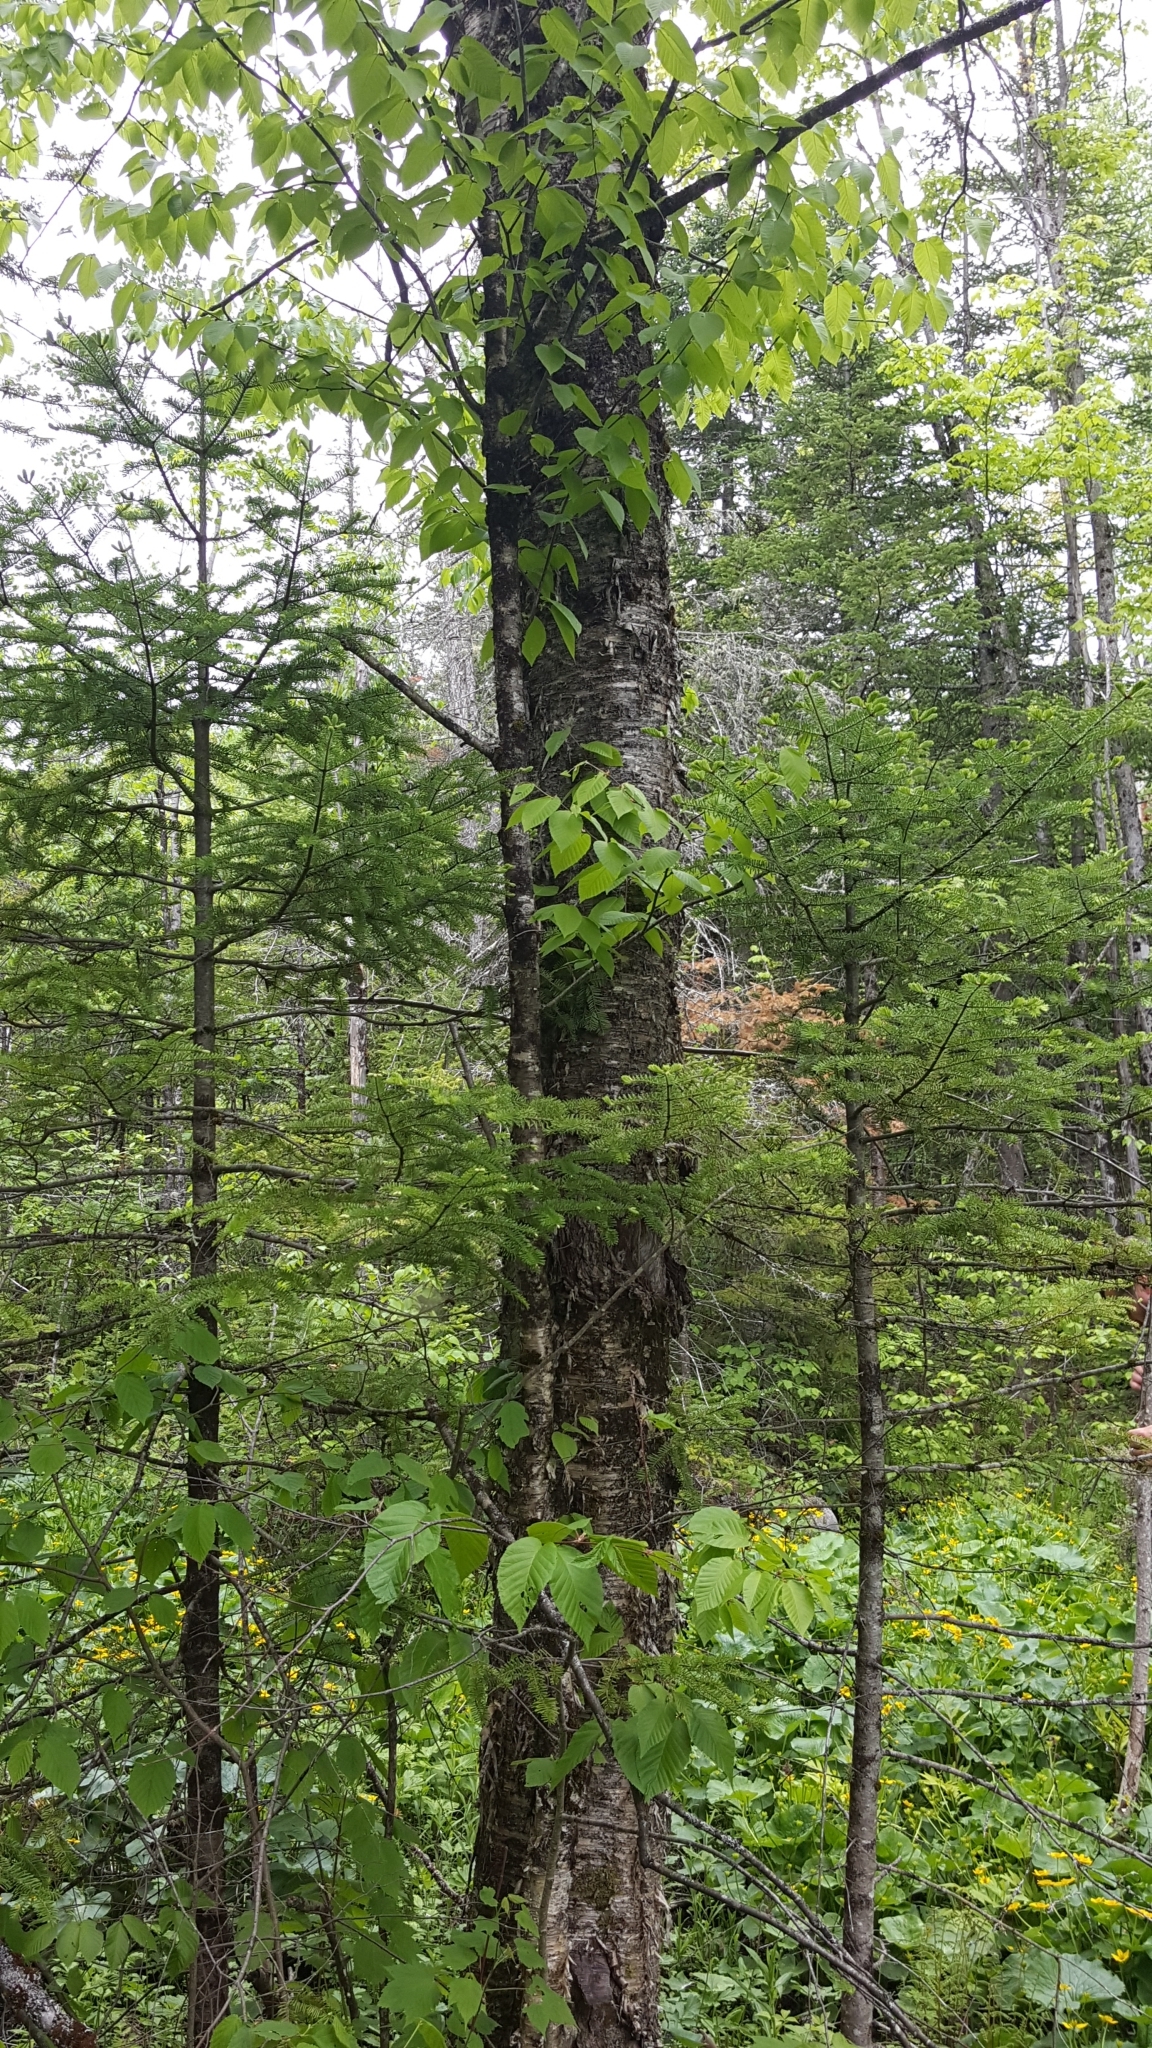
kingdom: Plantae
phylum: Tracheophyta
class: Magnoliopsida
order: Fagales
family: Betulaceae
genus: Betula
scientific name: Betula alleghaniensis
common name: Yellow birch
